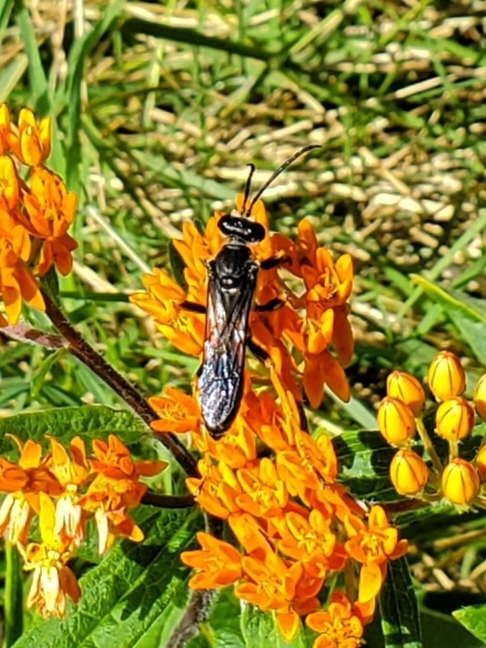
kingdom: Animalia
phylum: Arthropoda
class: Insecta
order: Hymenoptera
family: Sphecidae
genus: Sphex
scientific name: Sphex nudus
